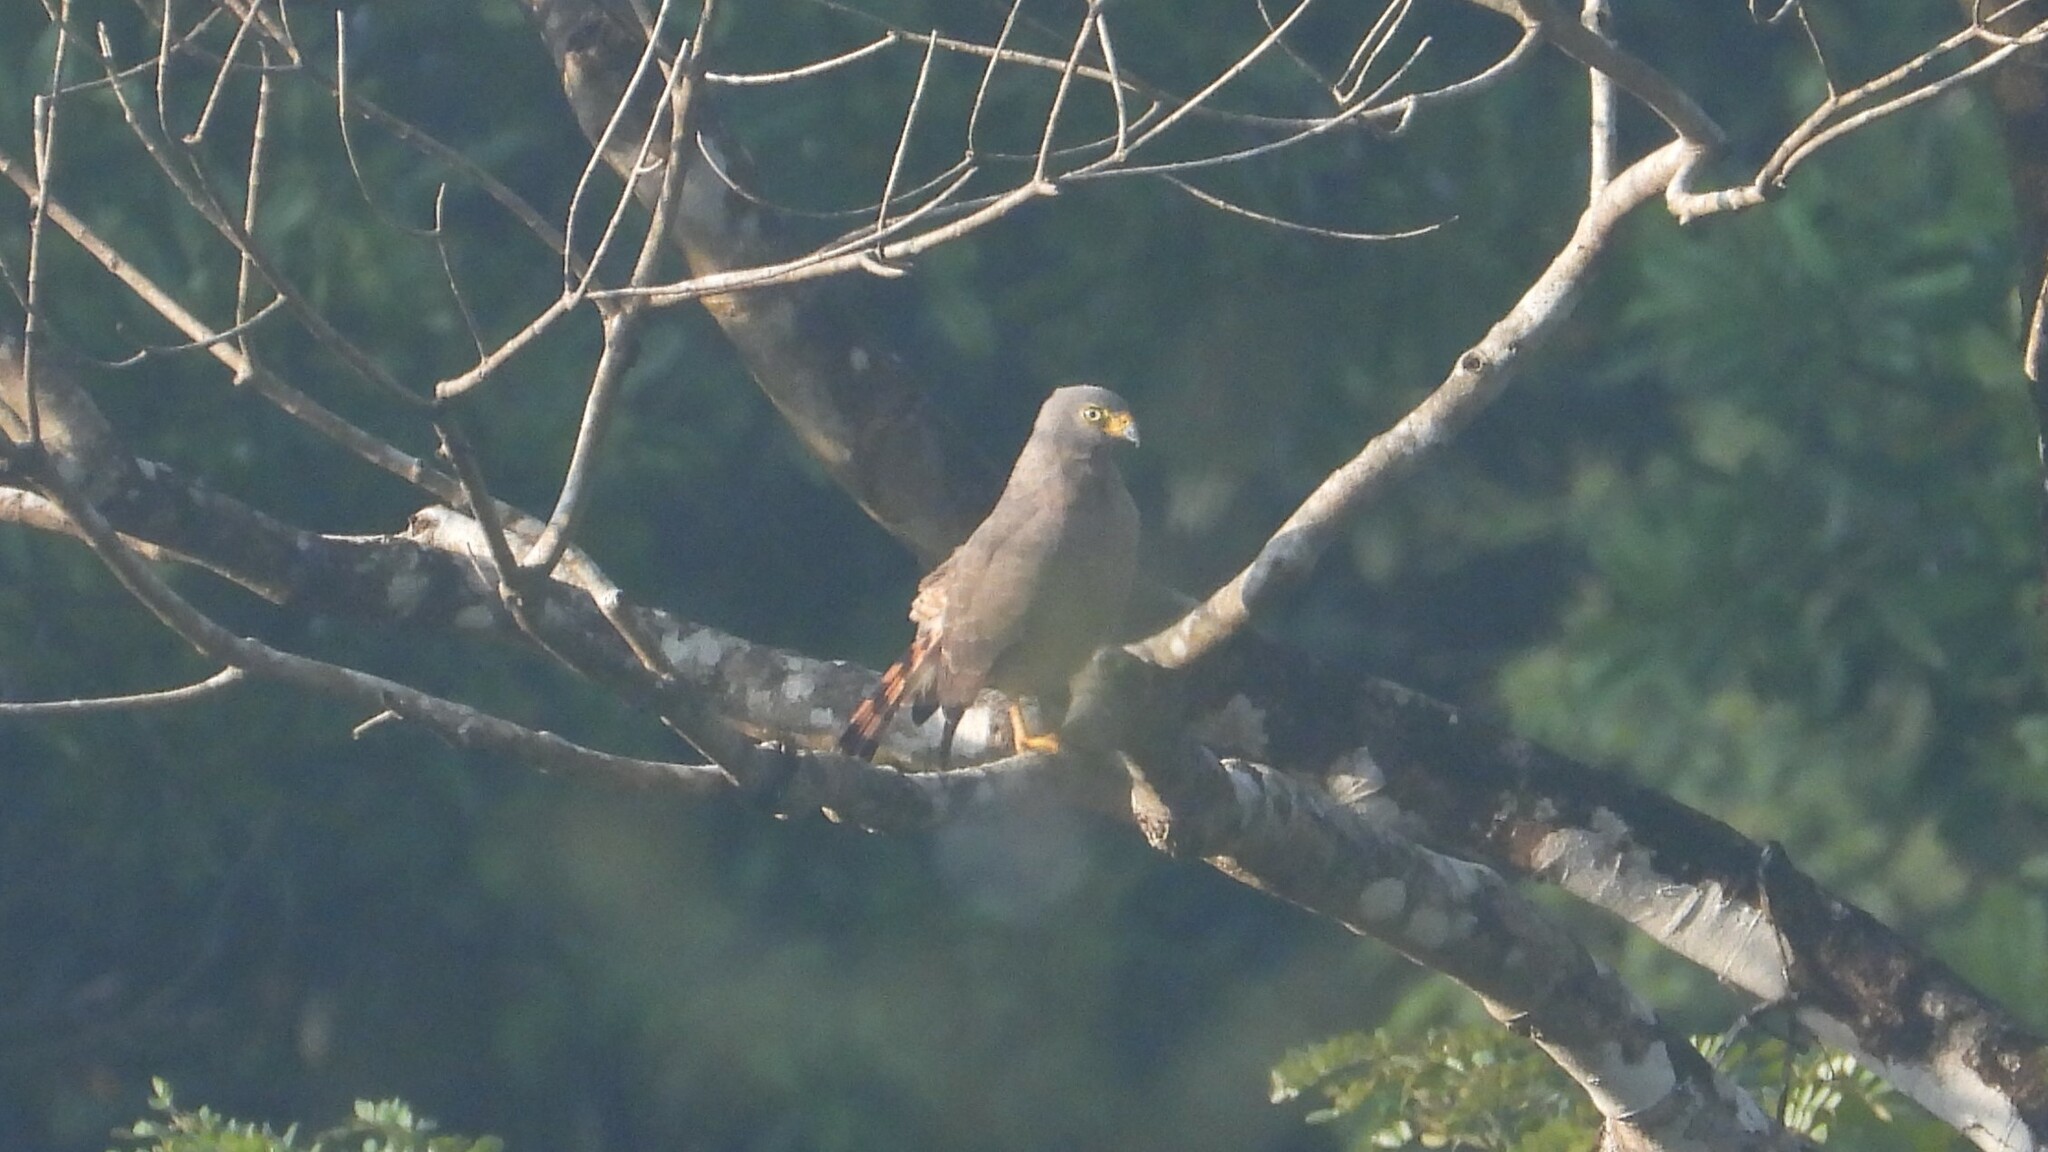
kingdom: Animalia
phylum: Chordata
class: Aves
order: Accipitriformes
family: Accipitridae
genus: Rupornis
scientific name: Rupornis magnirostris
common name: Roadside hawk
